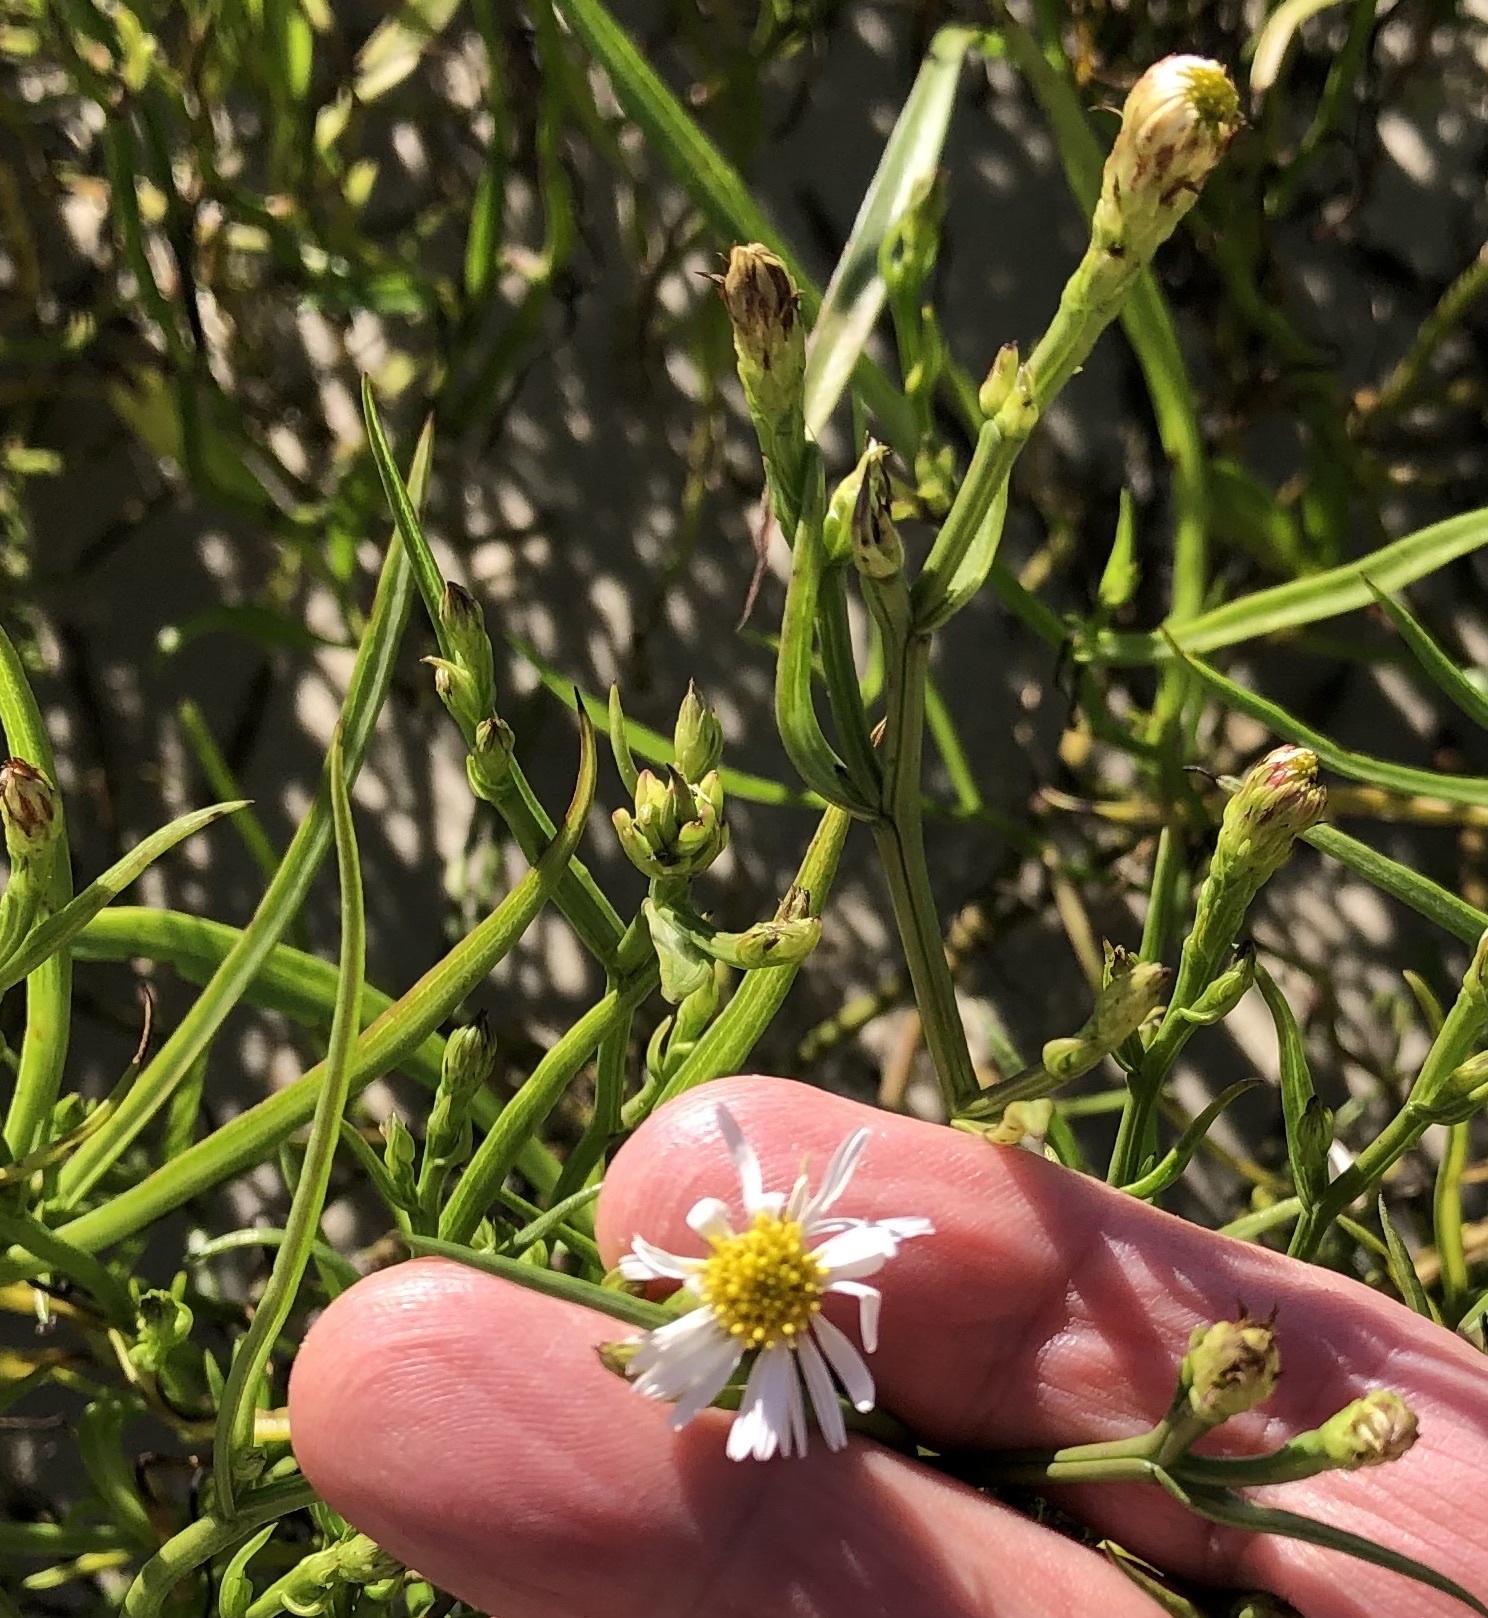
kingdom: Plantae
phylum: Tracheophyta
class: Magnoliopsida
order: Asterales
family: Asteraceae
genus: Symphyotrichum
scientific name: Symphyotrichum tenuifolium
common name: Perennial salt-marsh aster
